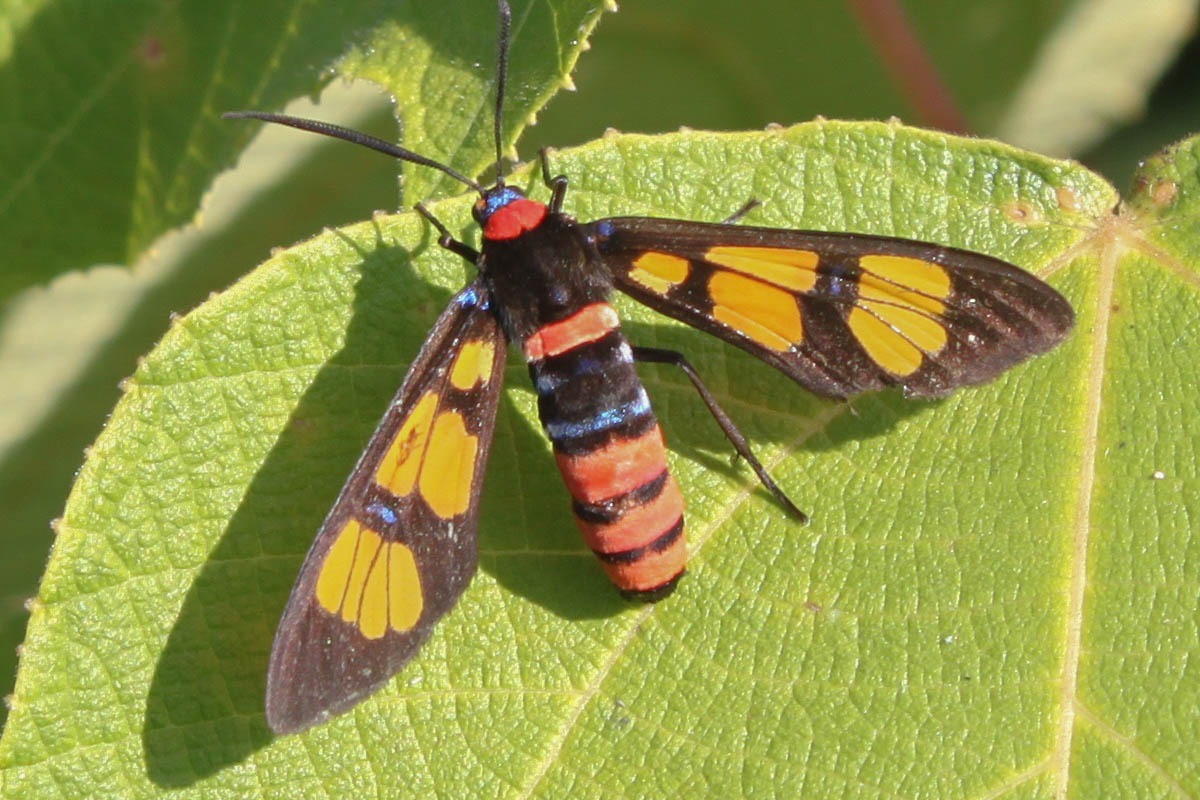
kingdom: Animalia
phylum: Arthropoda
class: Insecta
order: Lepidoptera
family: Erebidae
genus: Euchromia
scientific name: Euchromia polymena
